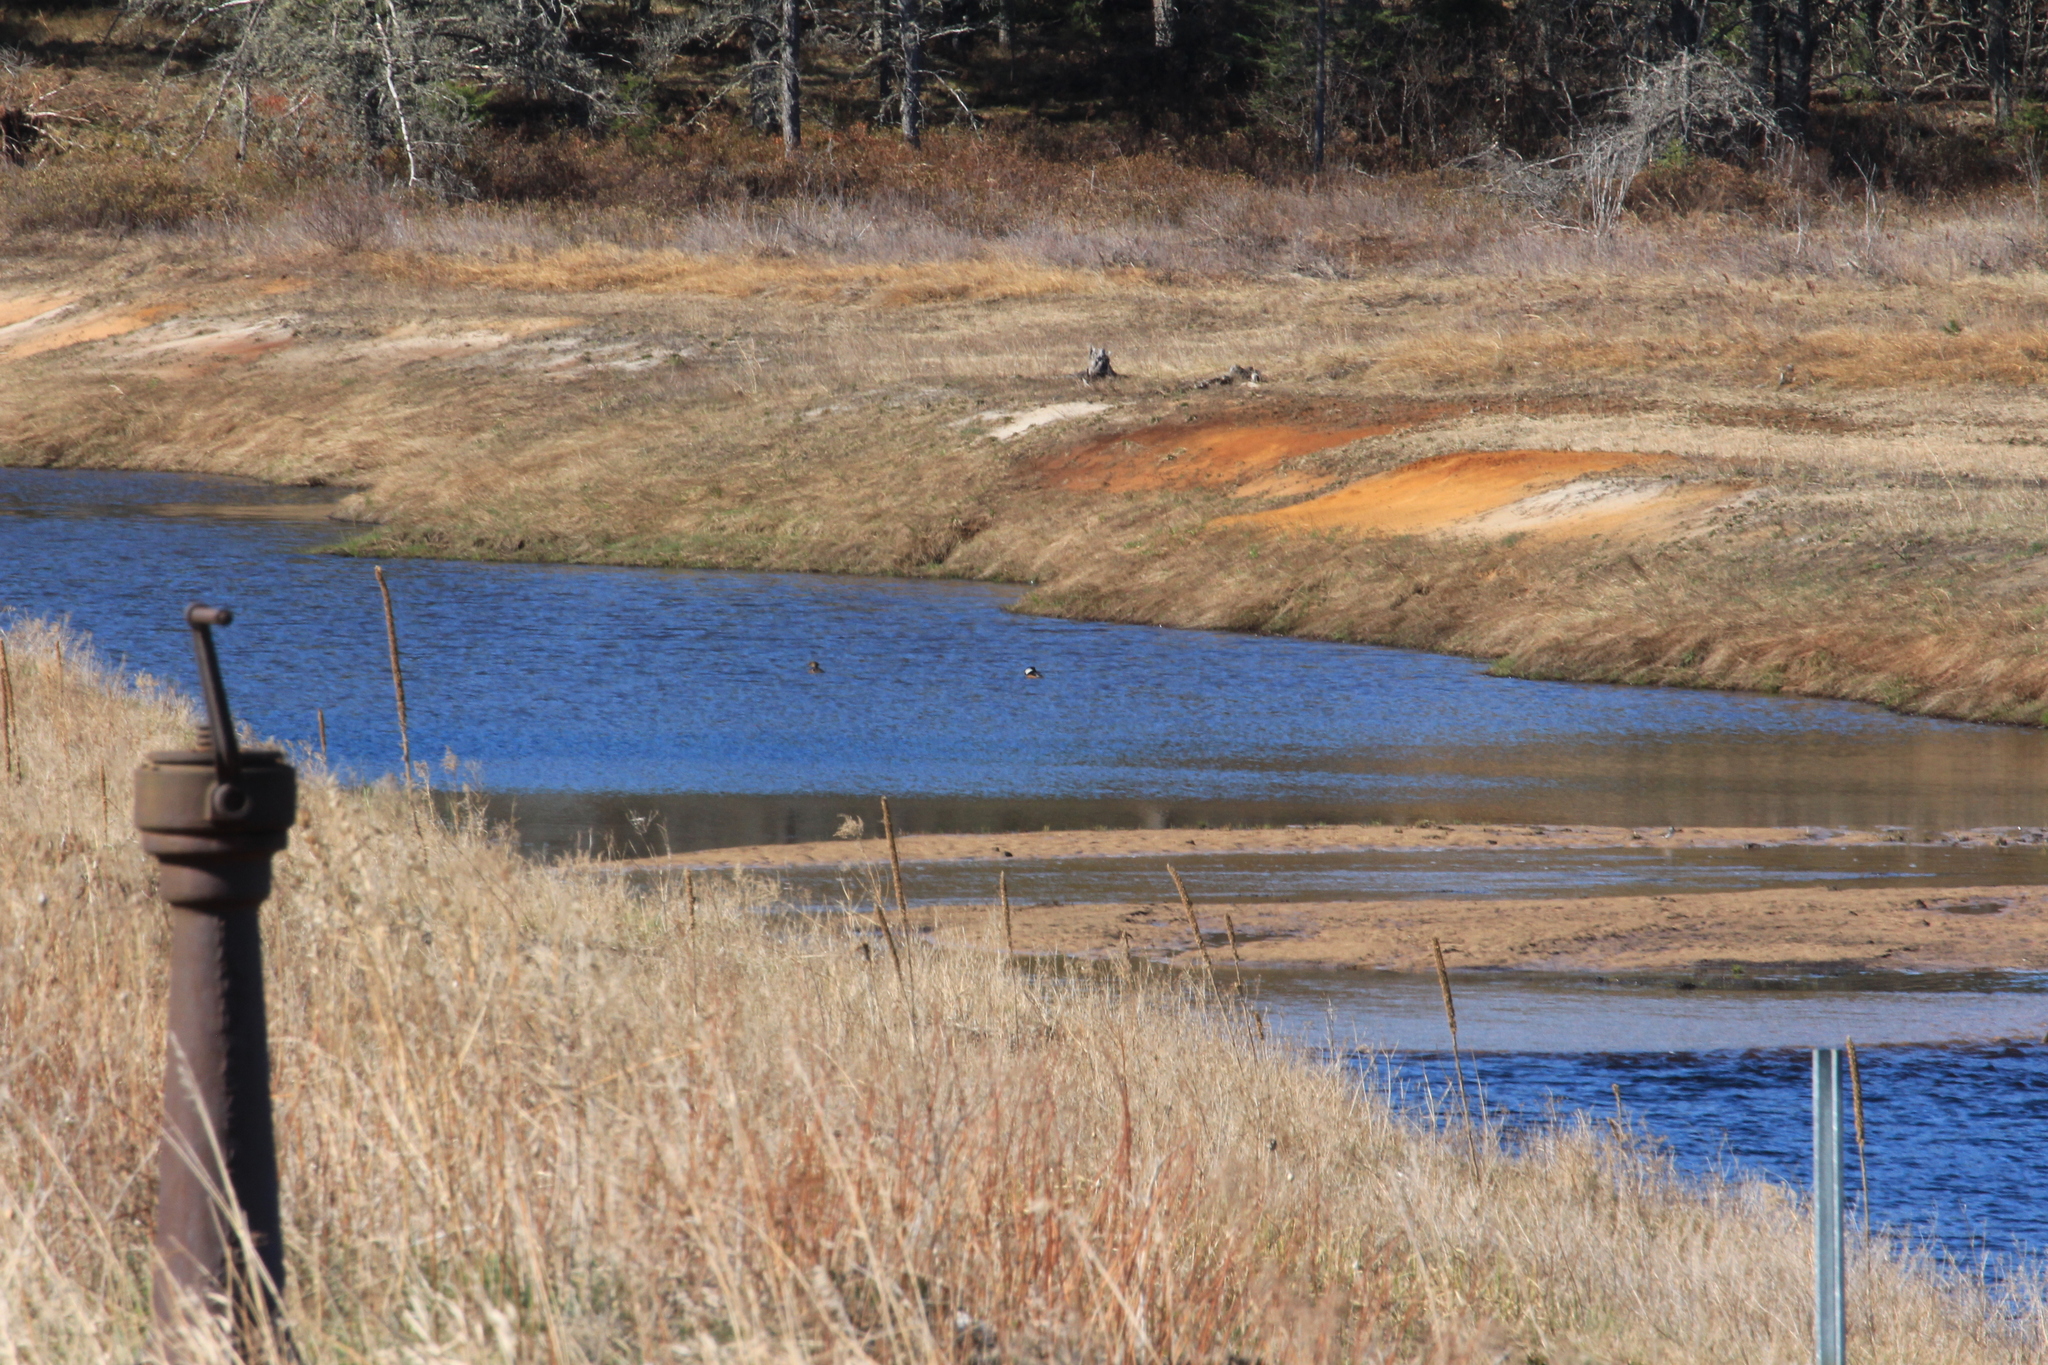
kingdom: Animalia
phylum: Chordata
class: Aves
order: Anseriformes
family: Anatidae
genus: Lophodytes
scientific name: Lophodytes cucullatus
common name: Hooded merganser
